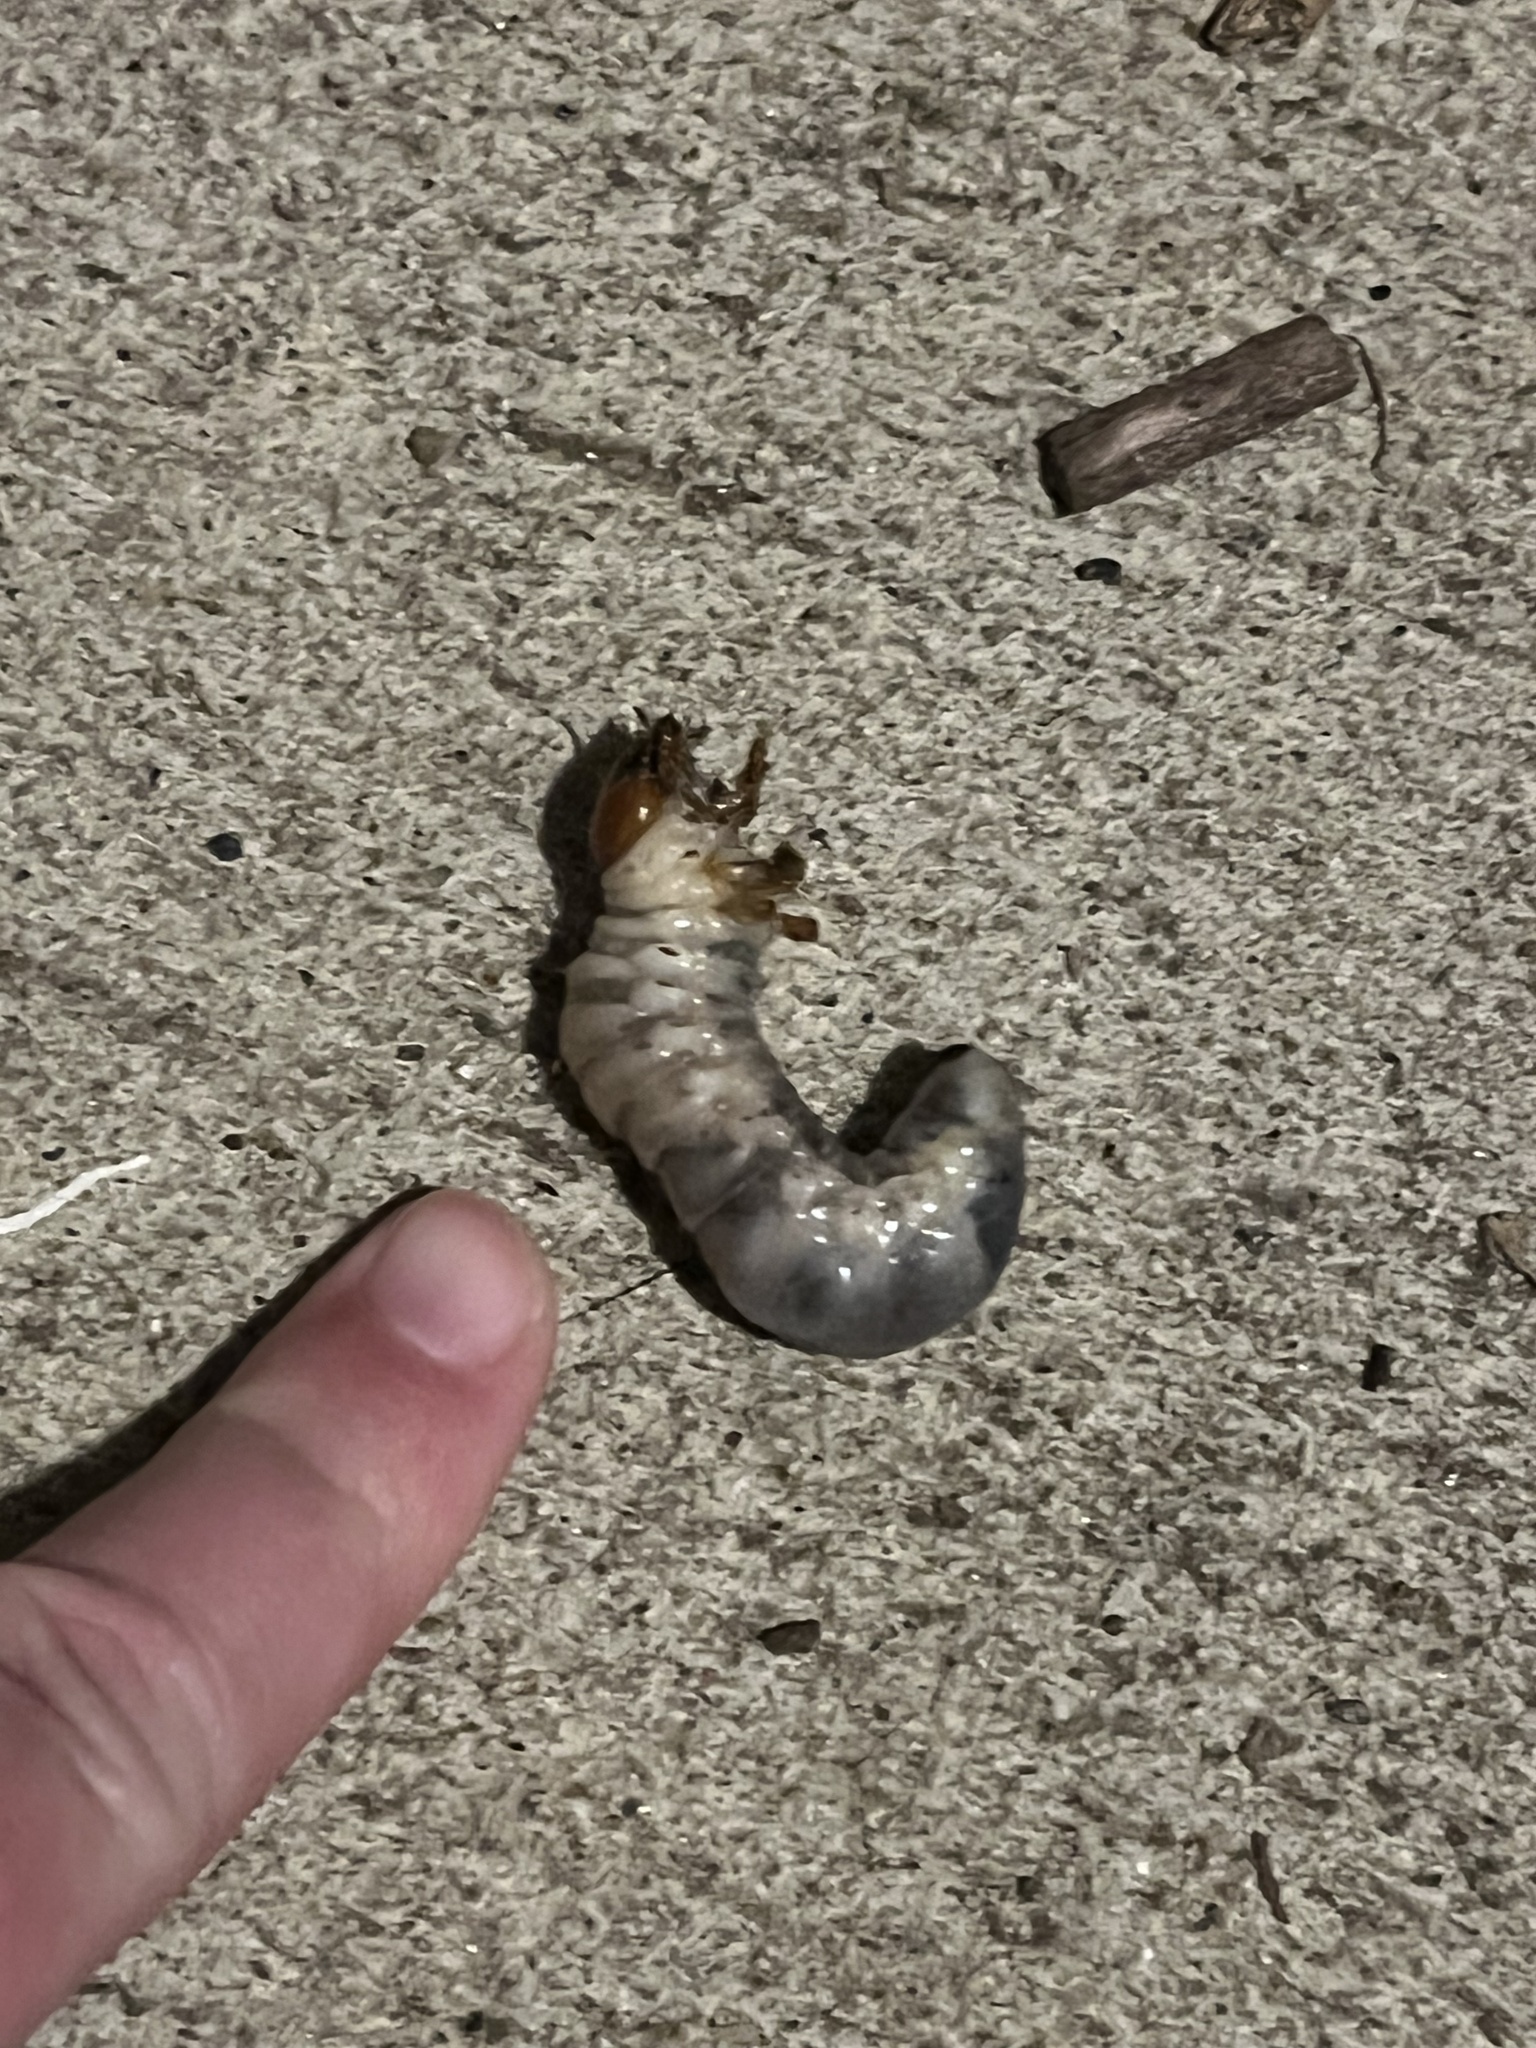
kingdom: Animalia
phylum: Arthropoda
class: Insecta
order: Coleoptera
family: Lucanidae
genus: Lucanus
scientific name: Lucanus capreolus
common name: Stag beetle
